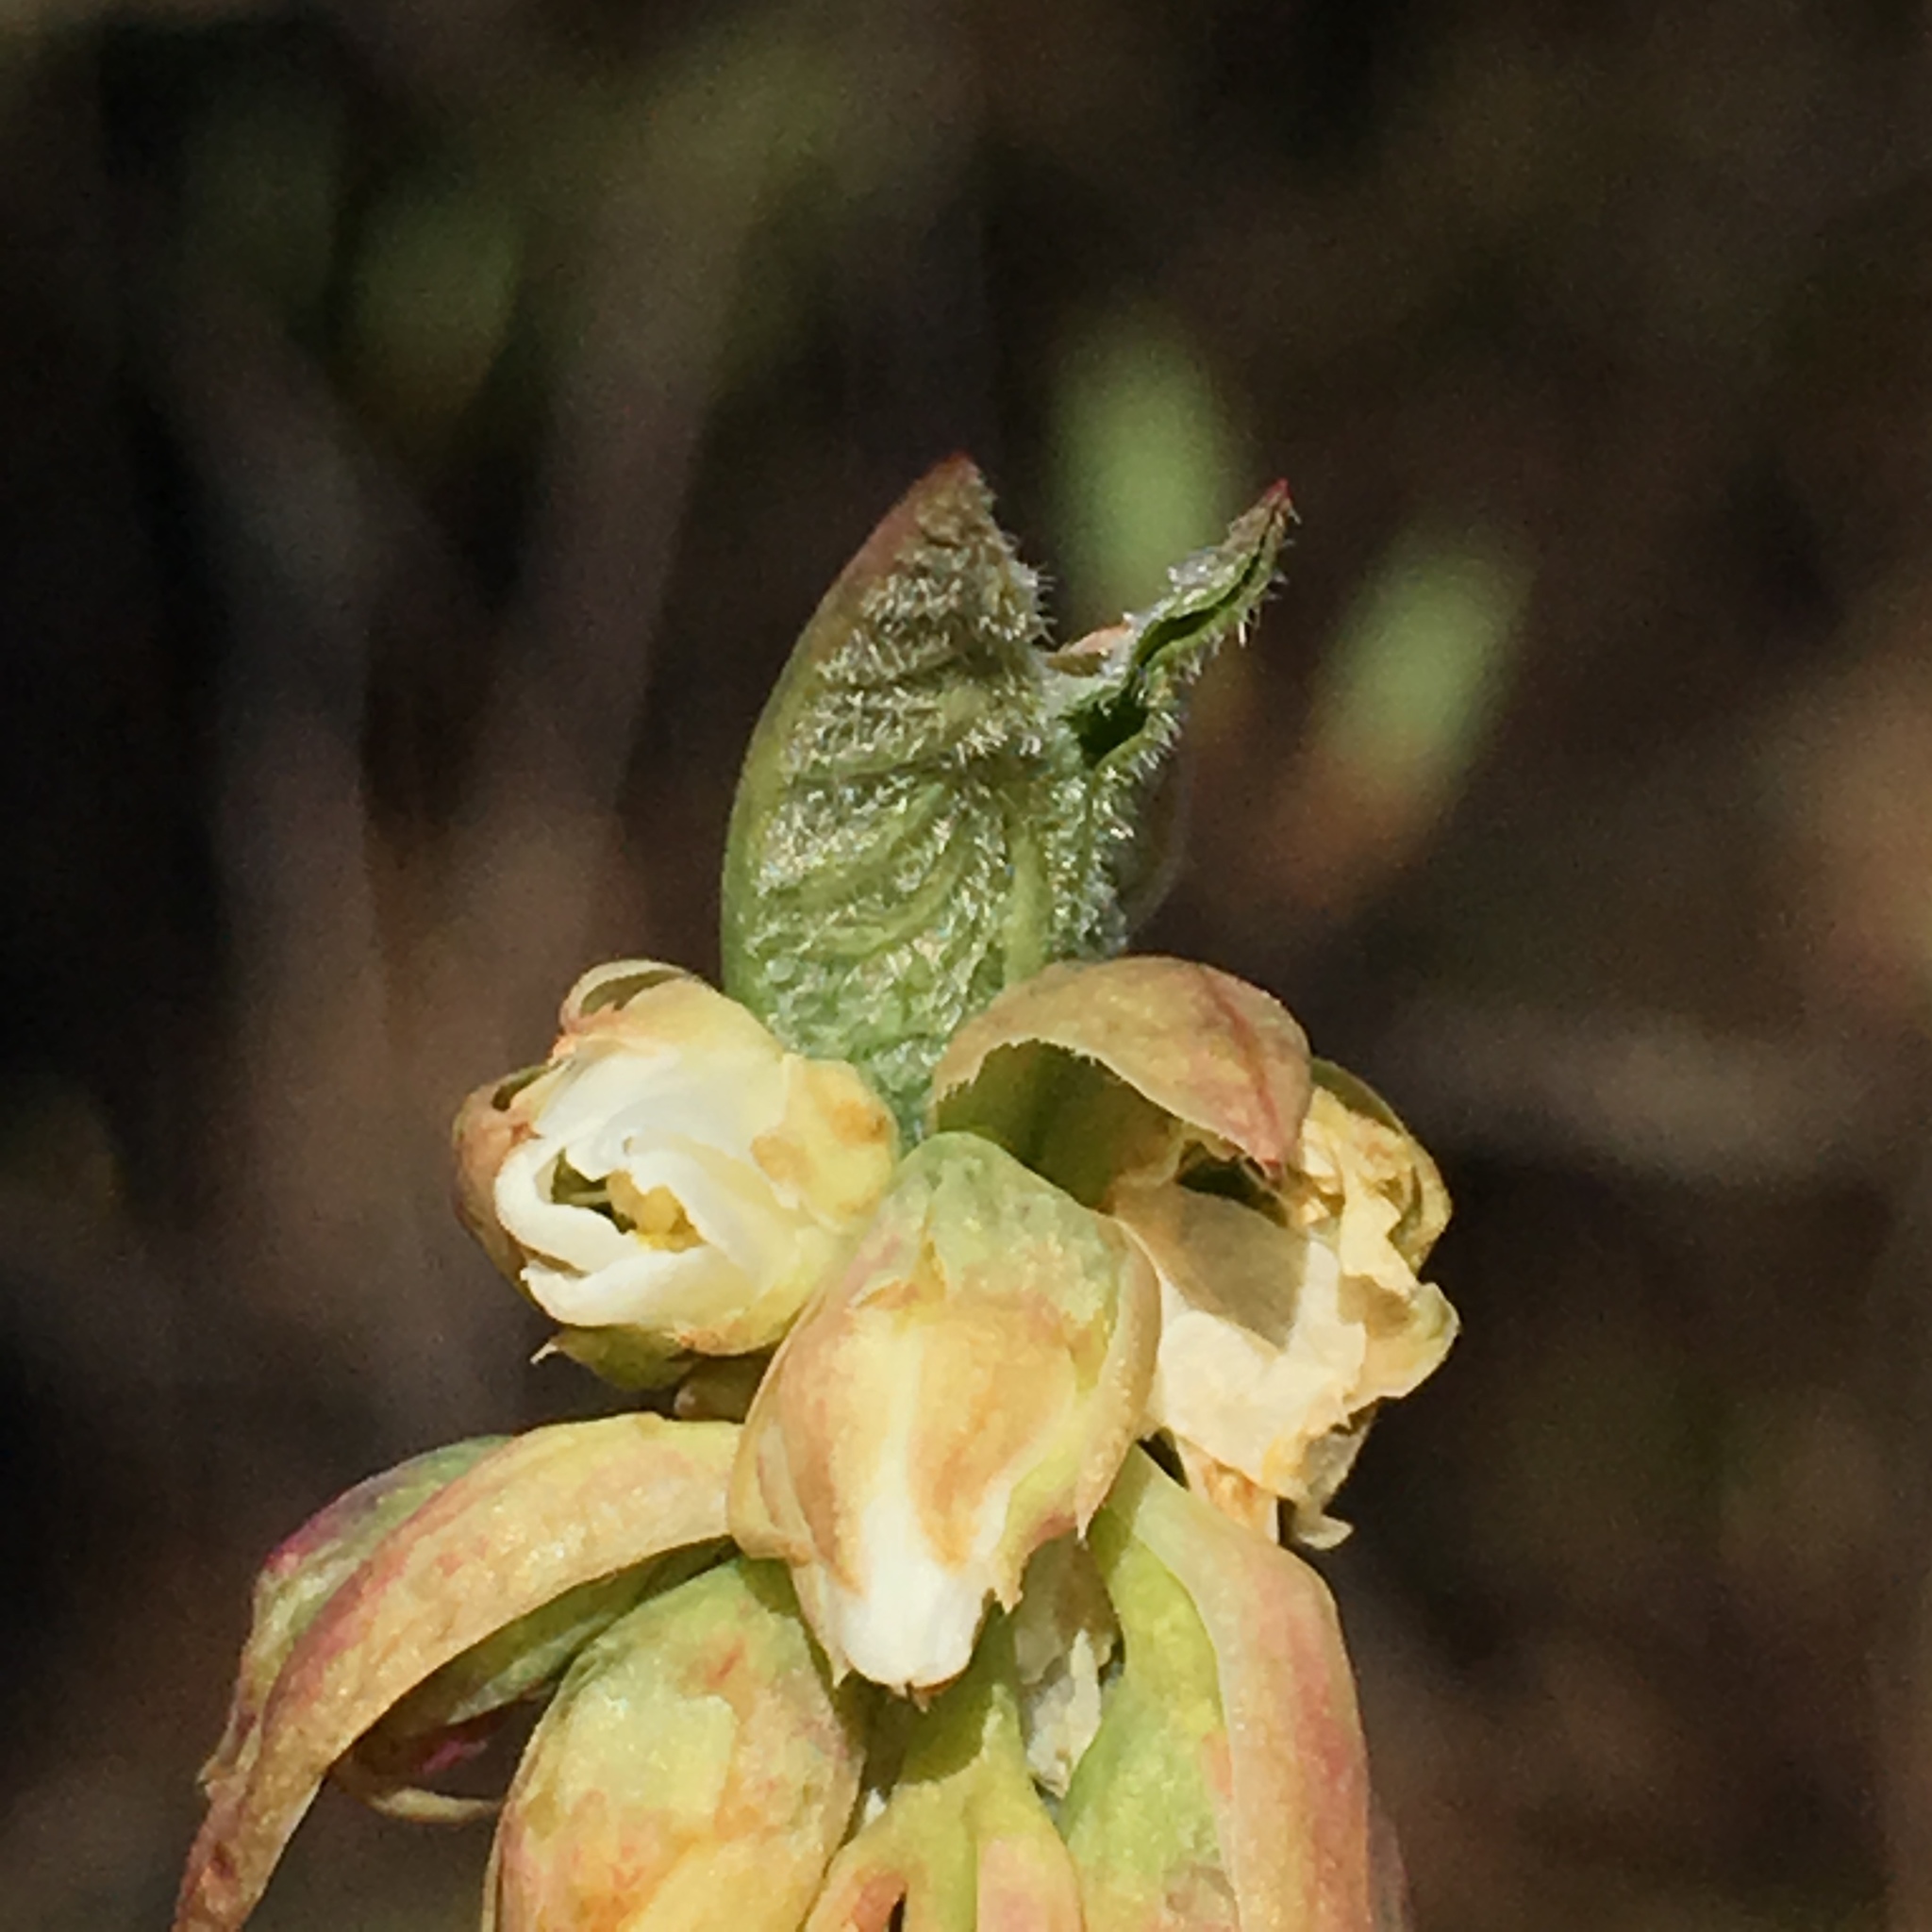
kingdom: Plantae
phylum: Tracheophyta
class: Magnoliopsida
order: Rosales
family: Rosaceae
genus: Oemleria
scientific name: Oemleria cerasiformis
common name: Osoberry
